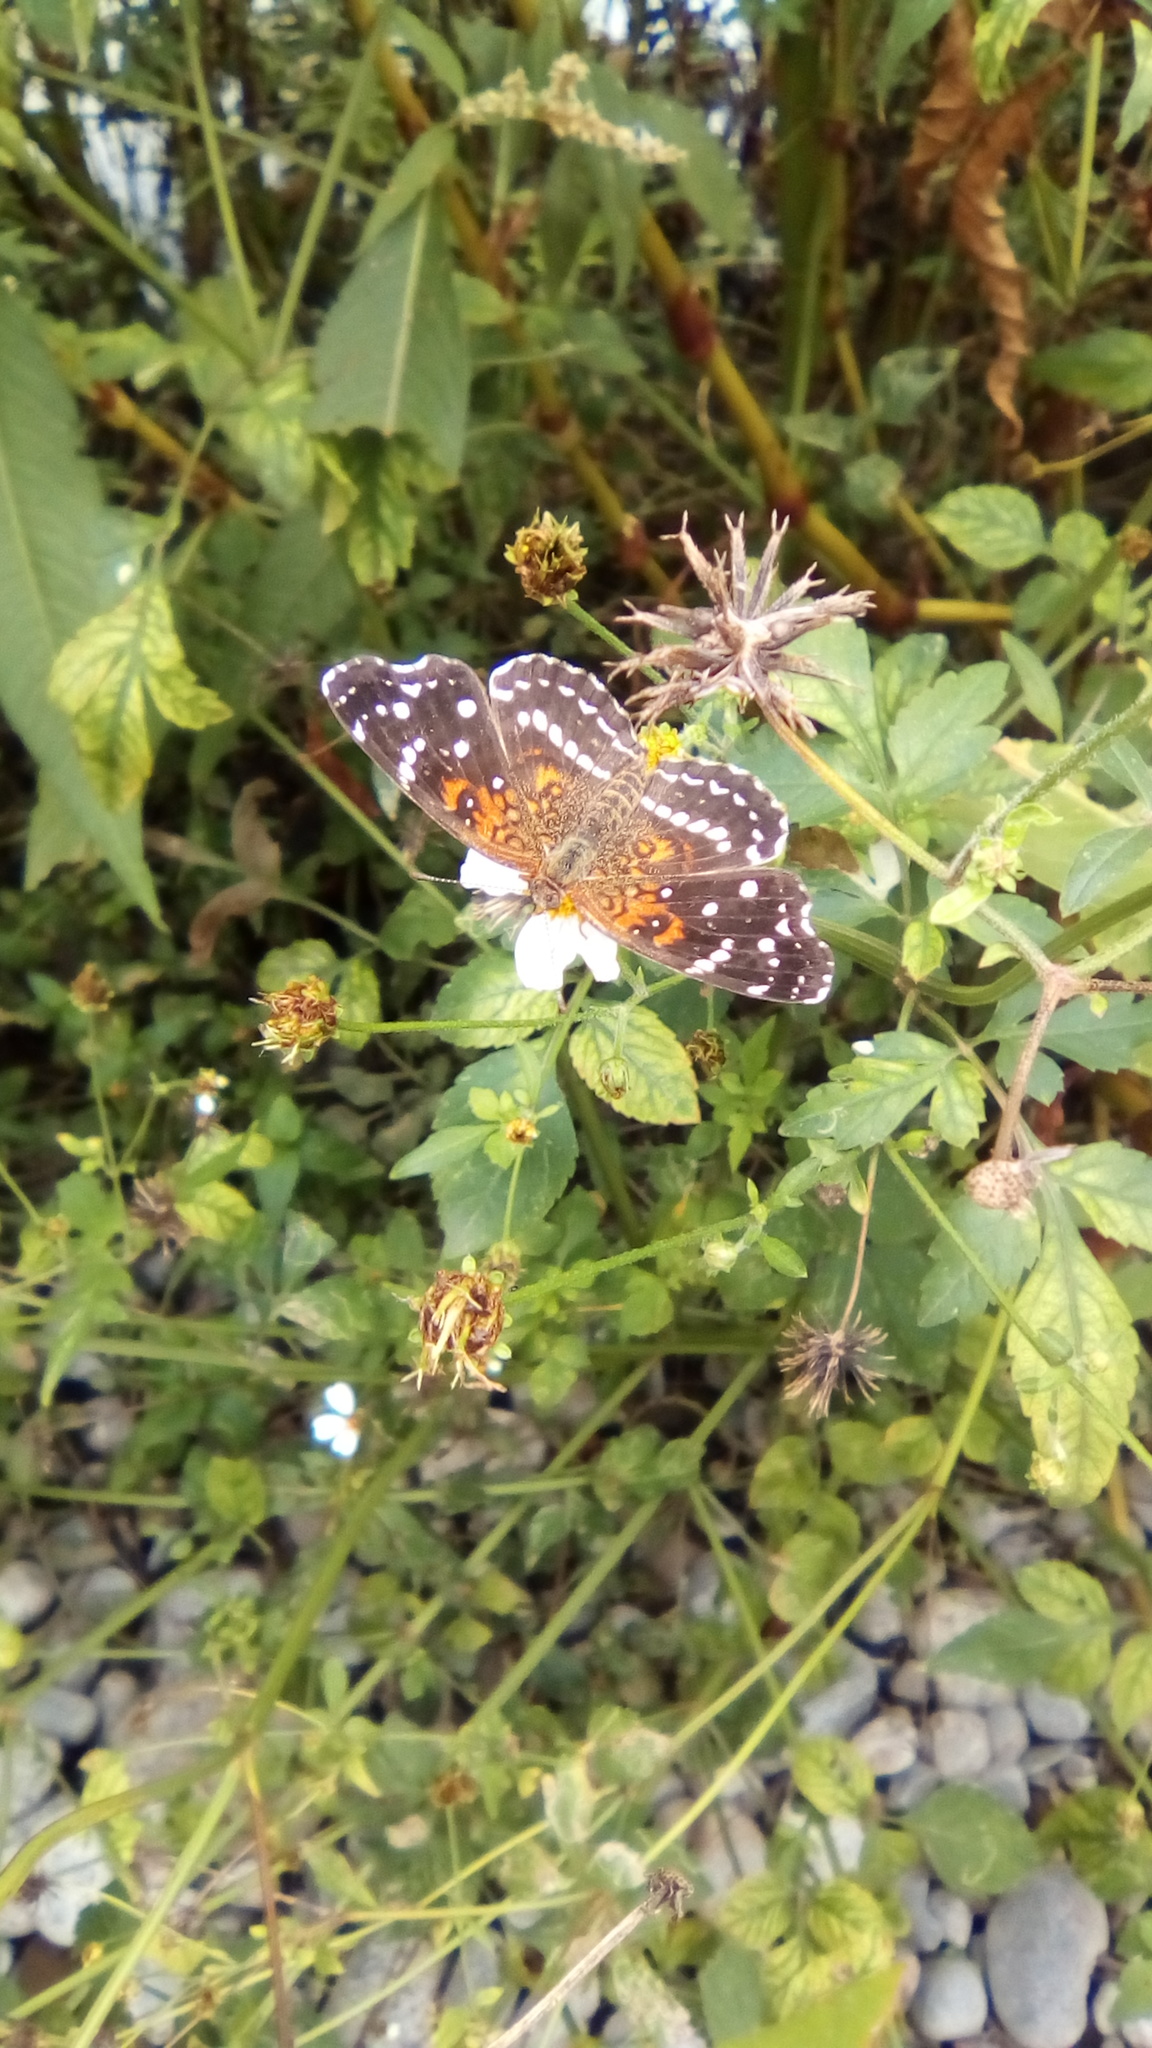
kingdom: Animalia
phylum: Arthropoda
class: Insecta
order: Lepidoptera
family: Nymphalidae
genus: Anthanassa
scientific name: Anthanassa texana
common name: Texan crescent
